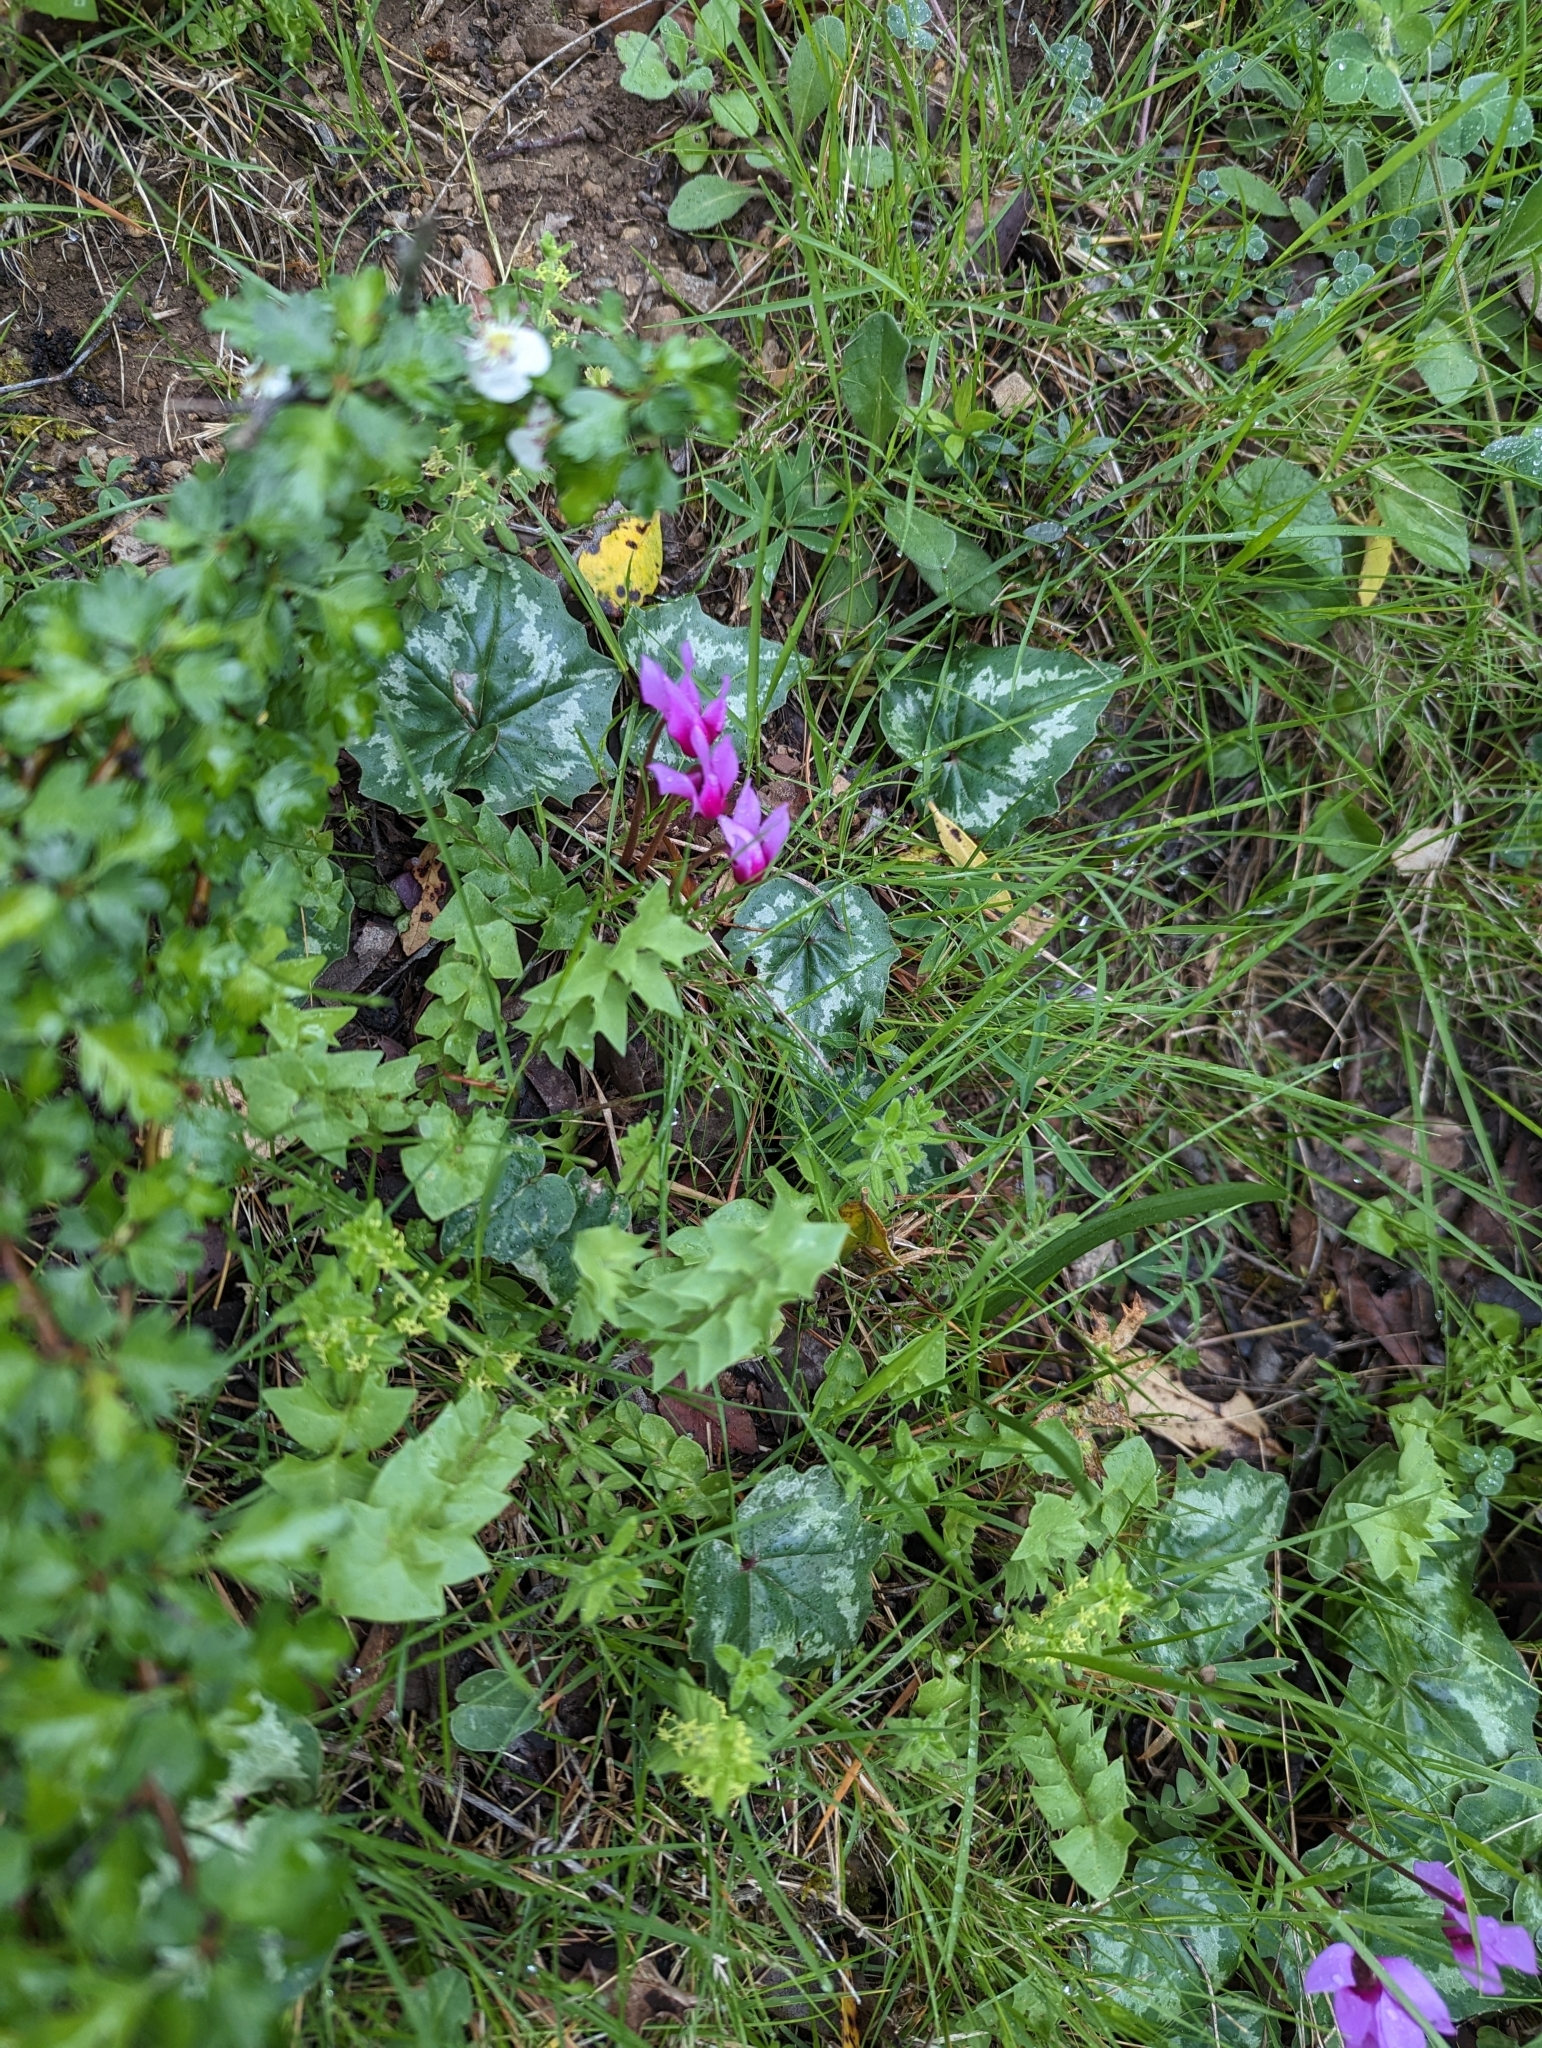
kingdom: Plantae
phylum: Tracheophyta
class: Magnoliopsida
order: Ericales
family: Primulaceae
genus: Cyclamen
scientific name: Cyclamen repandum
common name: Spring sowbread
